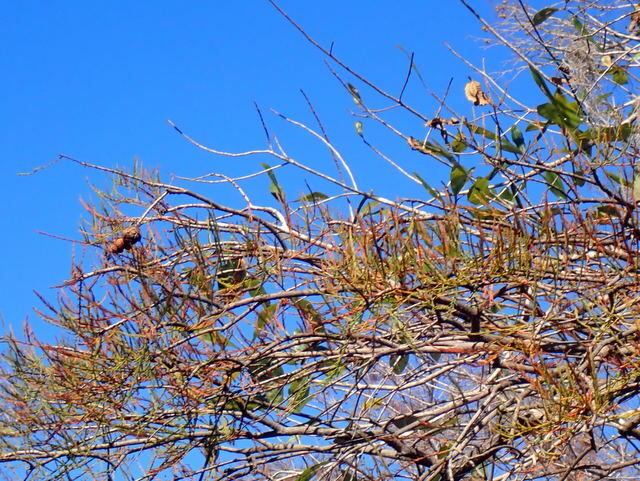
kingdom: Plantae
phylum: Tracheophyta
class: Pinopsida
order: Pinales
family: Cupressaceae
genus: Taxodium
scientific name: Taxodium distichum
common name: Bald cypress
